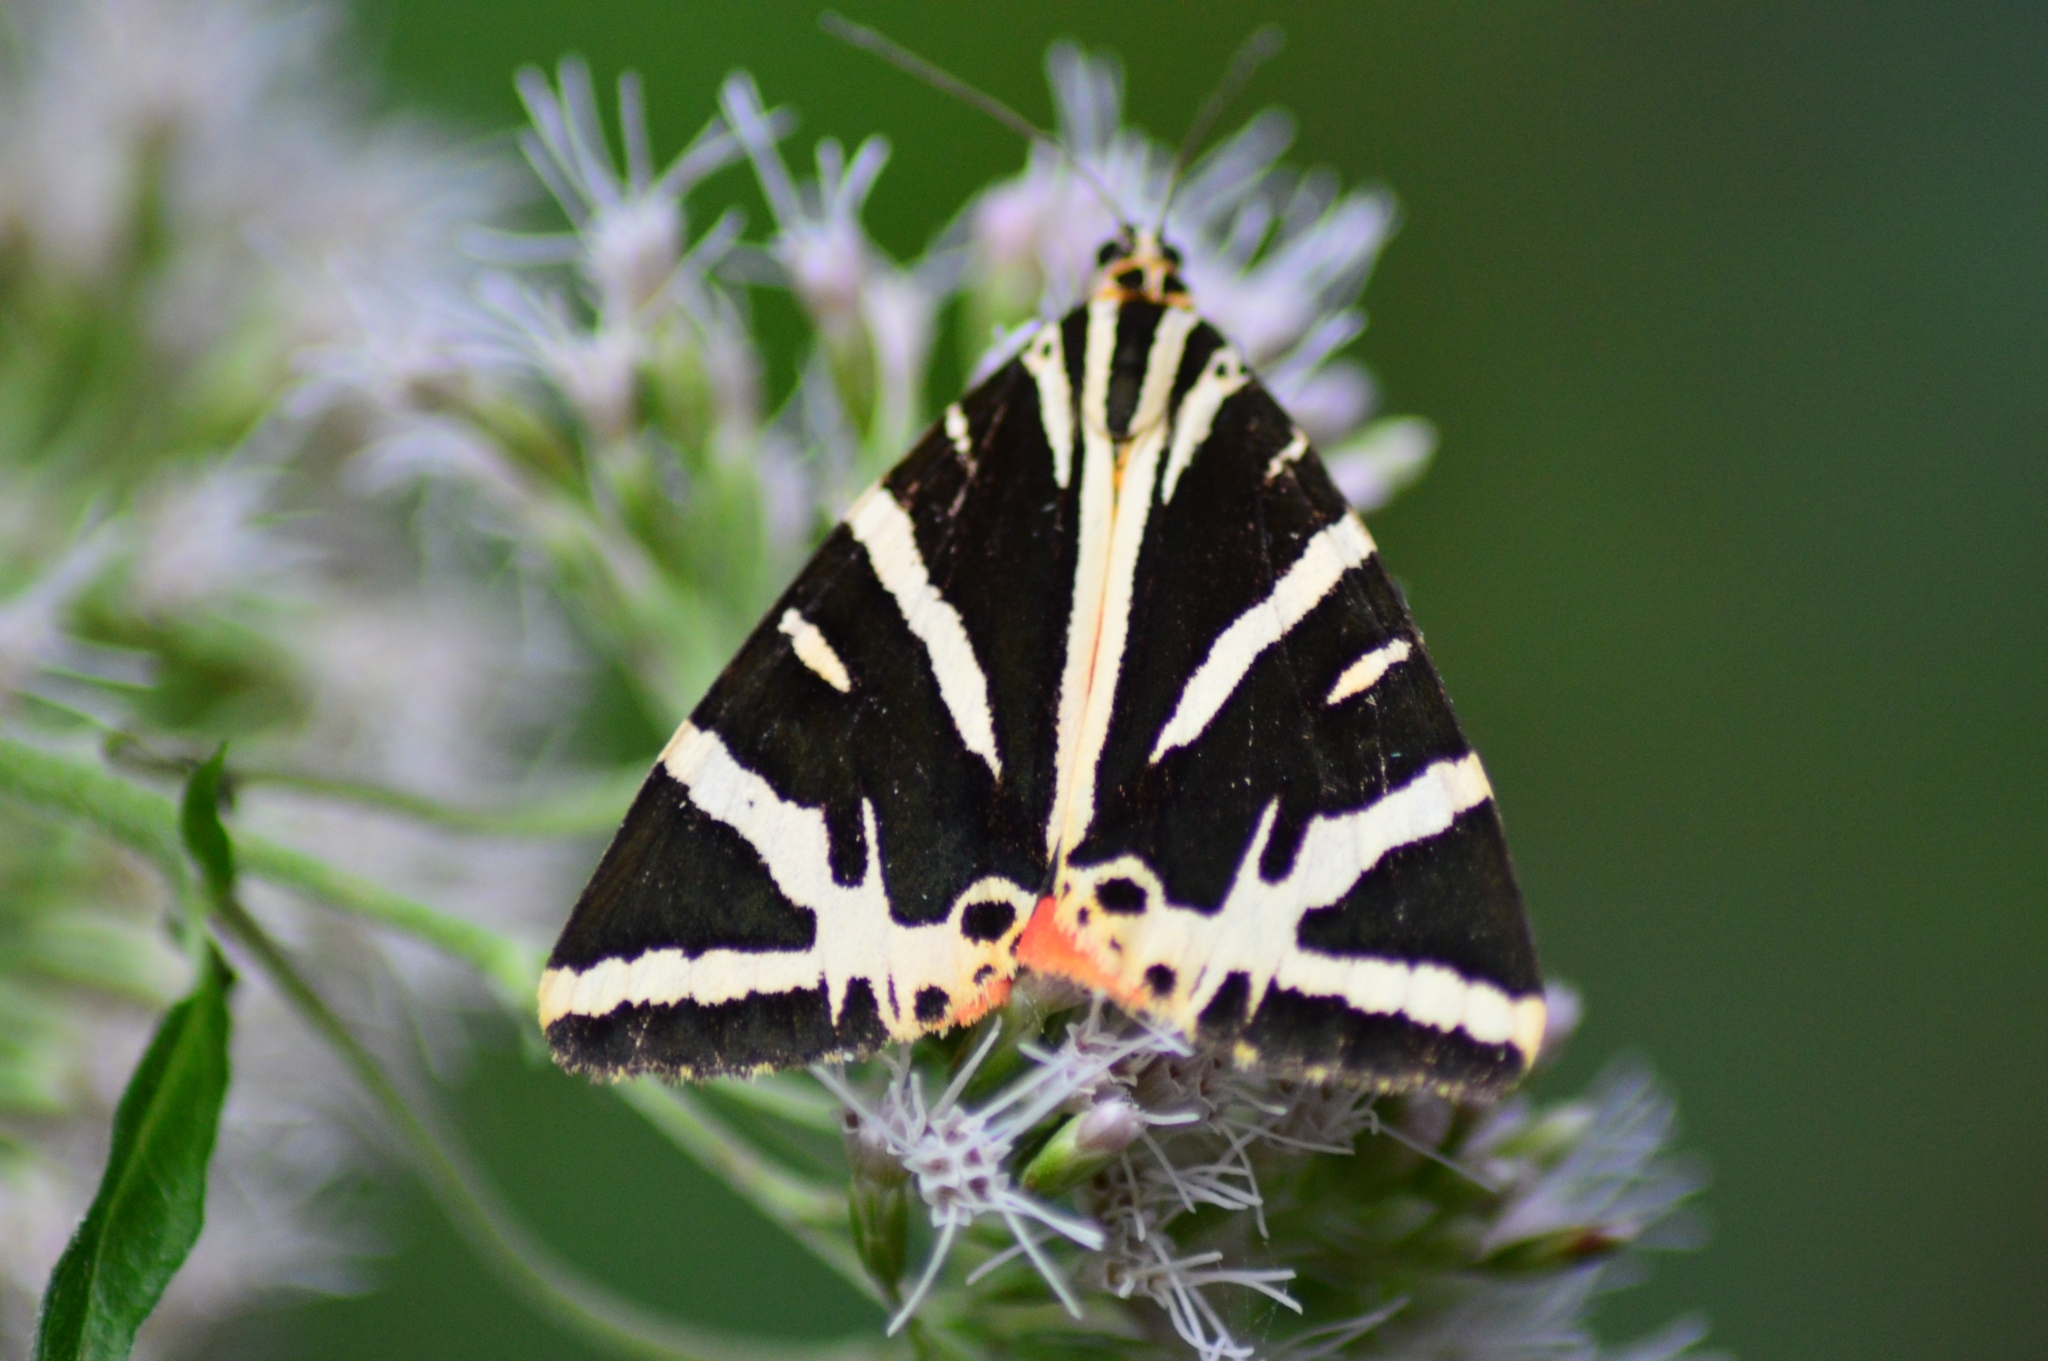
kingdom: Animalia
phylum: Arthropoda
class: Insecta
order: Lepidoptera
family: Erebidae
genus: Euplagia
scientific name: Euplagia quadripunctaria
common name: Jersey tiger
